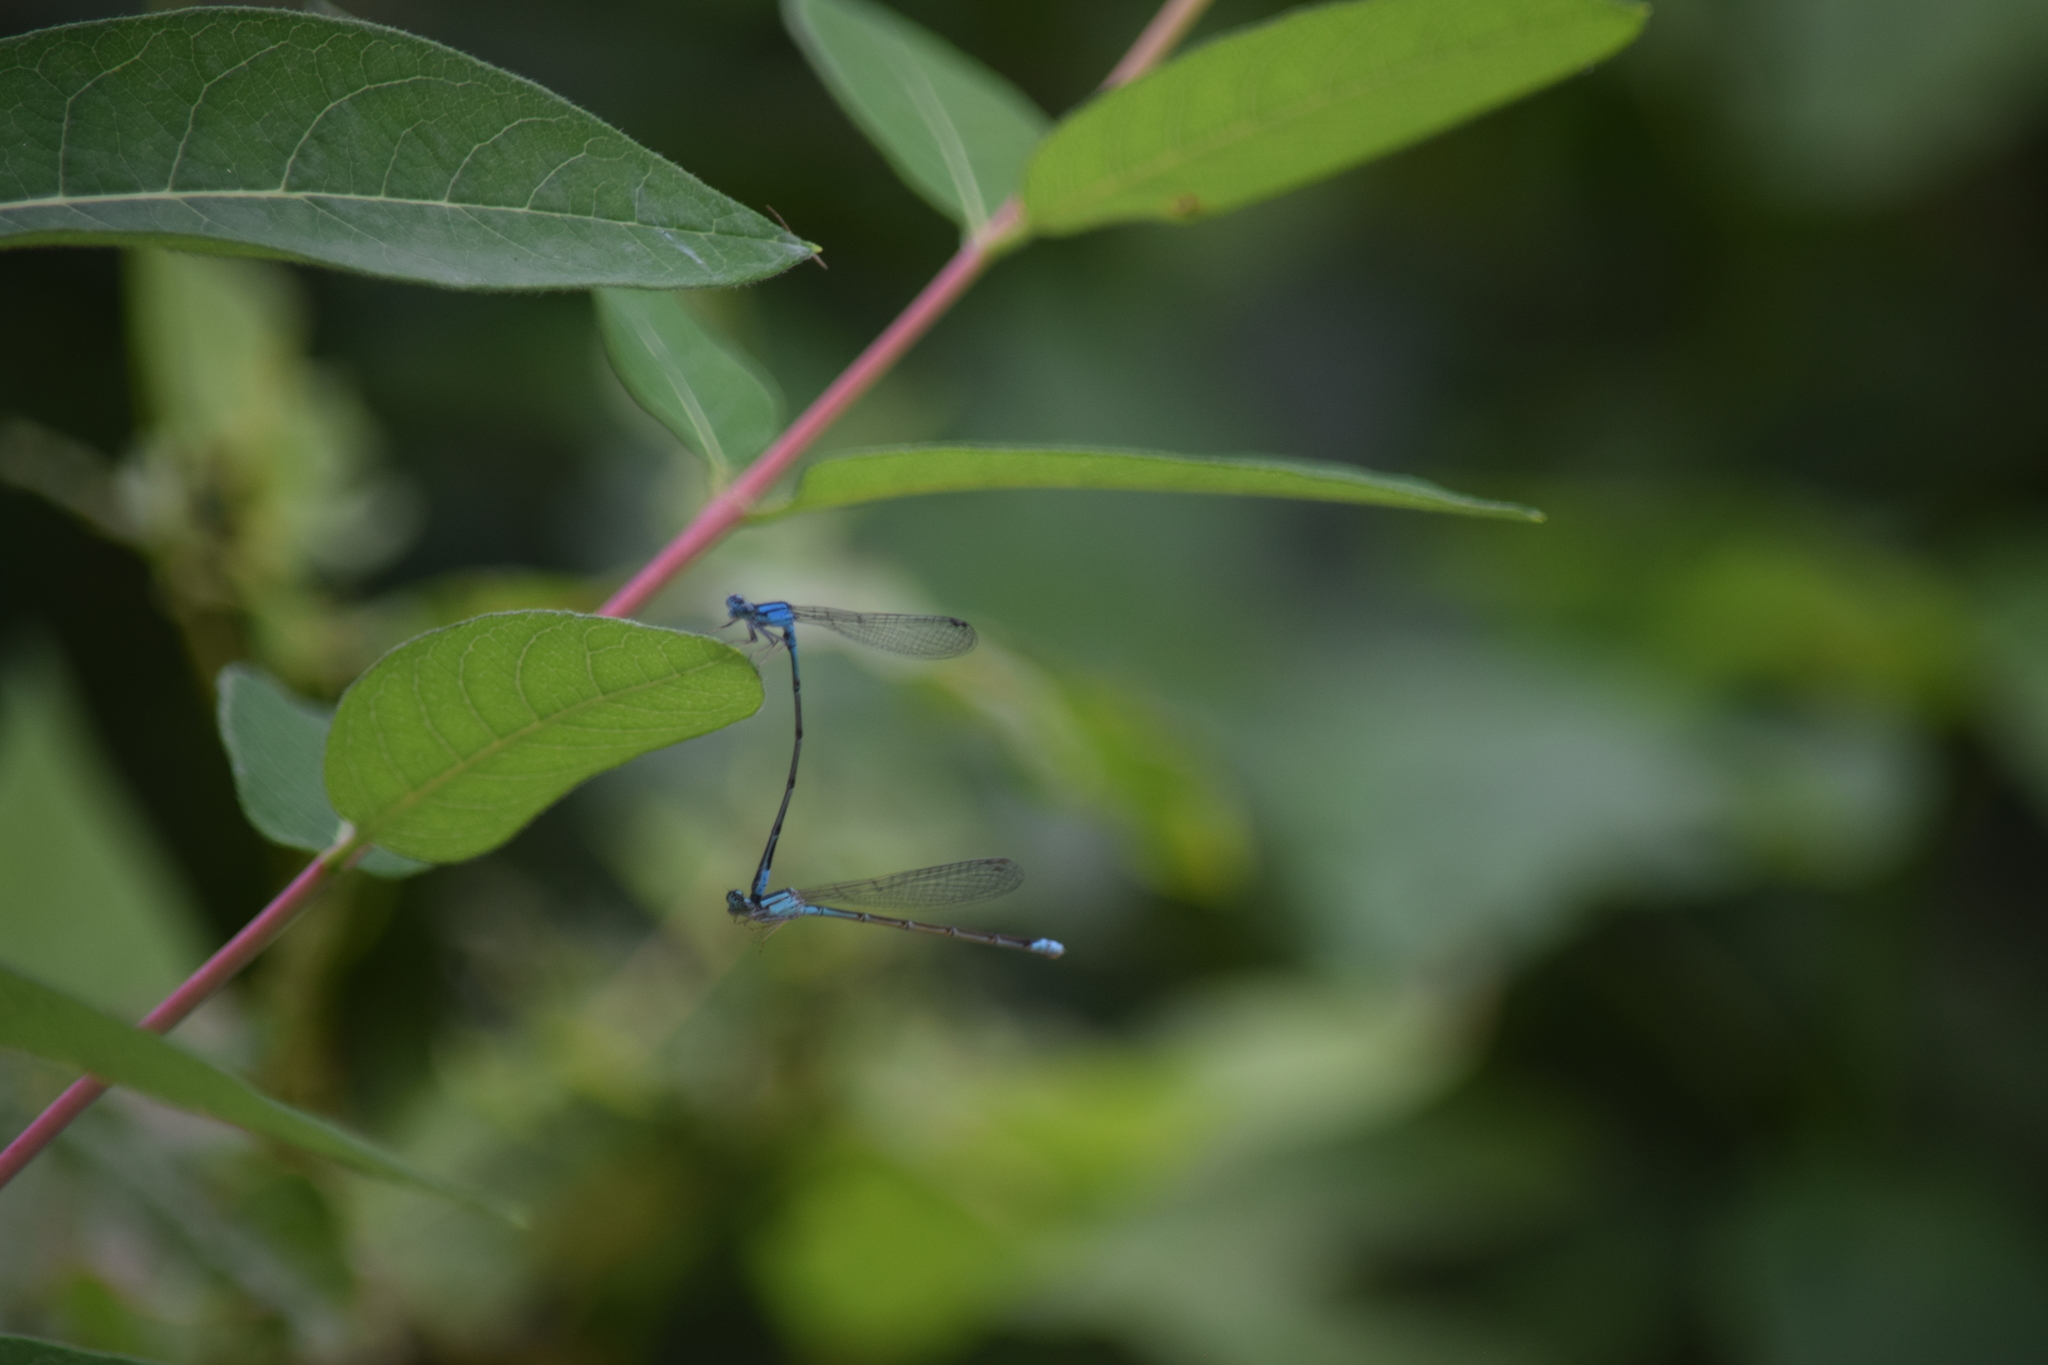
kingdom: Animalia
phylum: Arthropoda
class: Insecta
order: Odonata
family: Coenagrionidae
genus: Enallagma
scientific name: Enallagma traviatum
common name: Slender bluet
